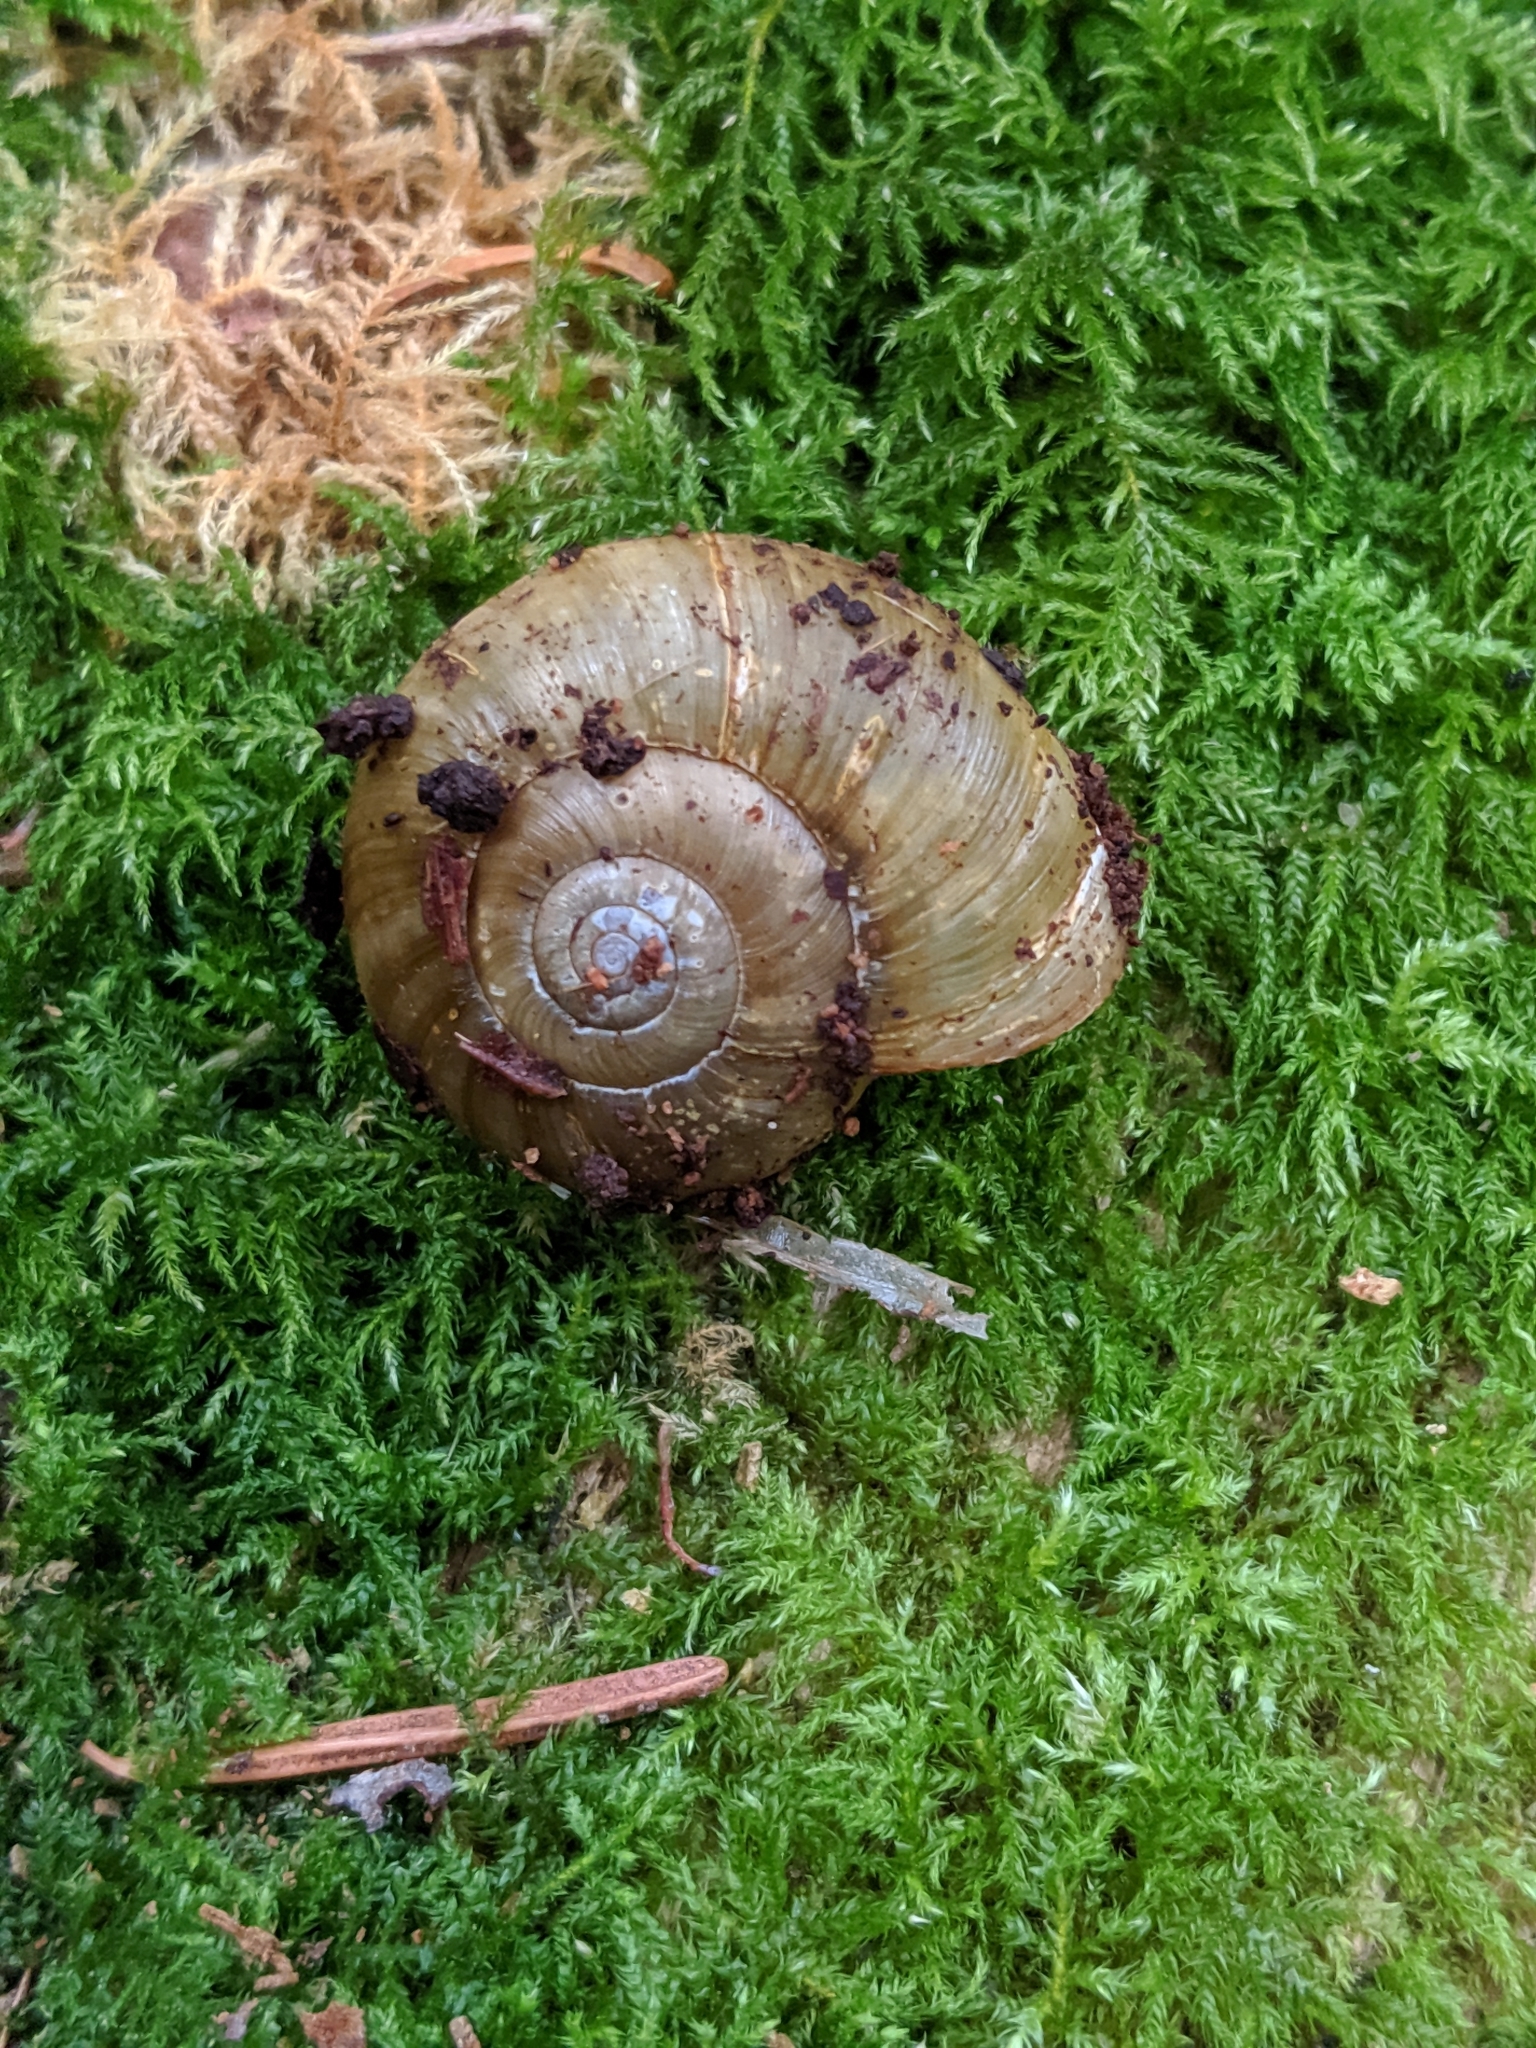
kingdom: Animalia
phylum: Mollusca
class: Gastropoda
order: Stylommatophora
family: Haplotrematidae
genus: Haplotrema
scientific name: Haplotrema vancouverense
